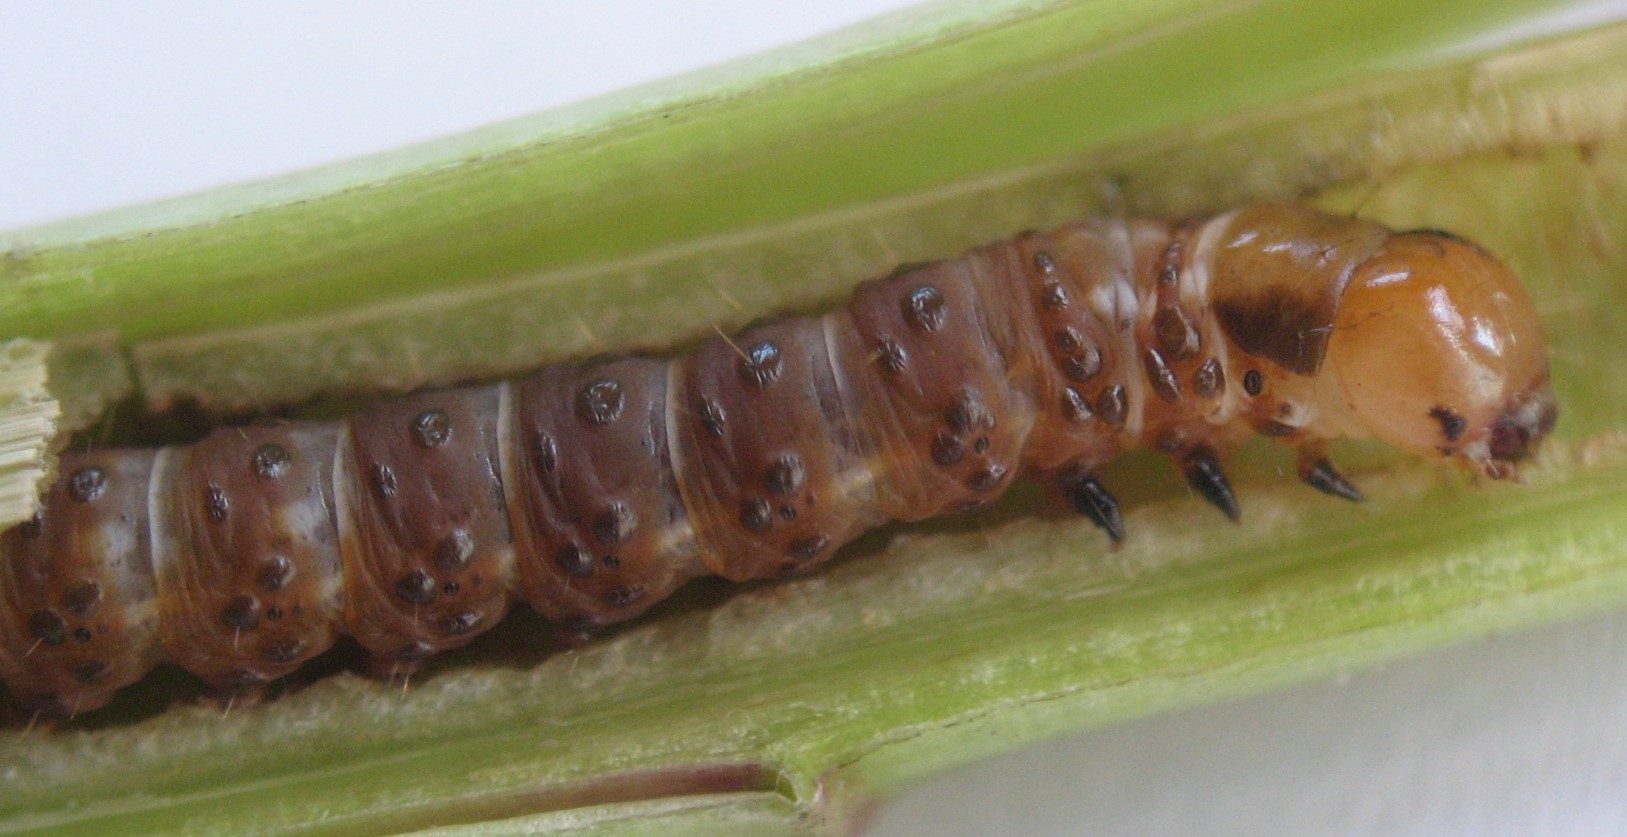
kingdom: Animalia
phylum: Arthropoda
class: Insecta
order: Lepidoptera
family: Noctuidae
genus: Papaipema
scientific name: Papaipema beeriana
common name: Blazing star stem borer
